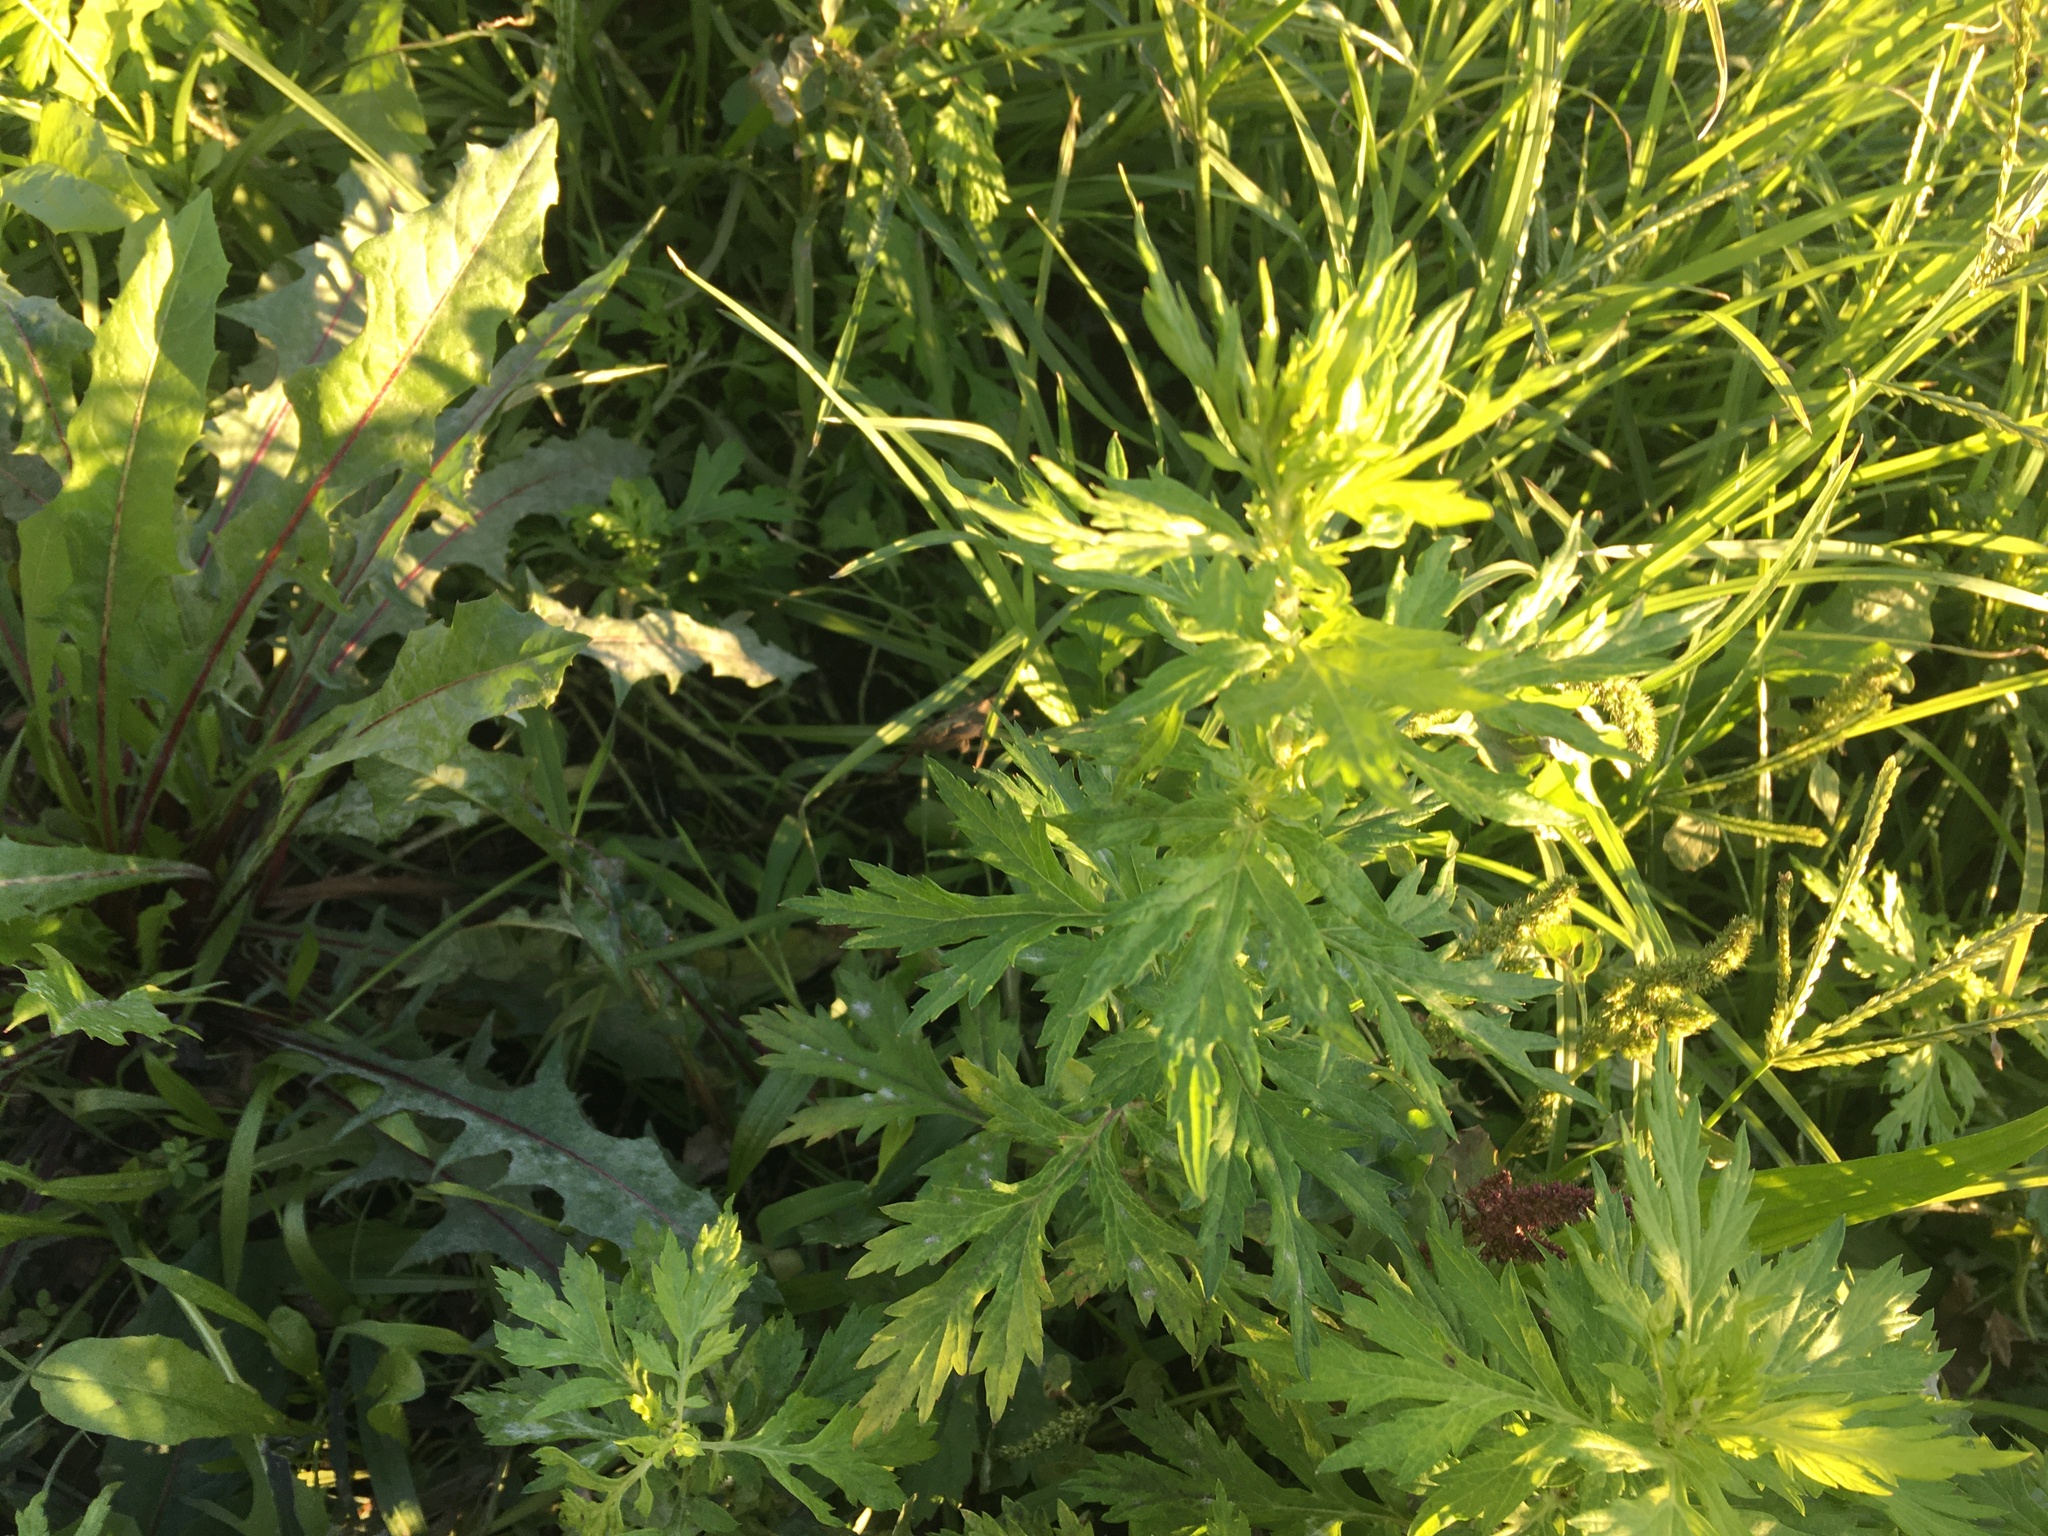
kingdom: Plantae
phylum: Tracheophyta
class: Magnoliopsida
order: Asterales
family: Asteraceae
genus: Artemisia
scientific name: Artemisia vulgaris
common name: Mugwort
